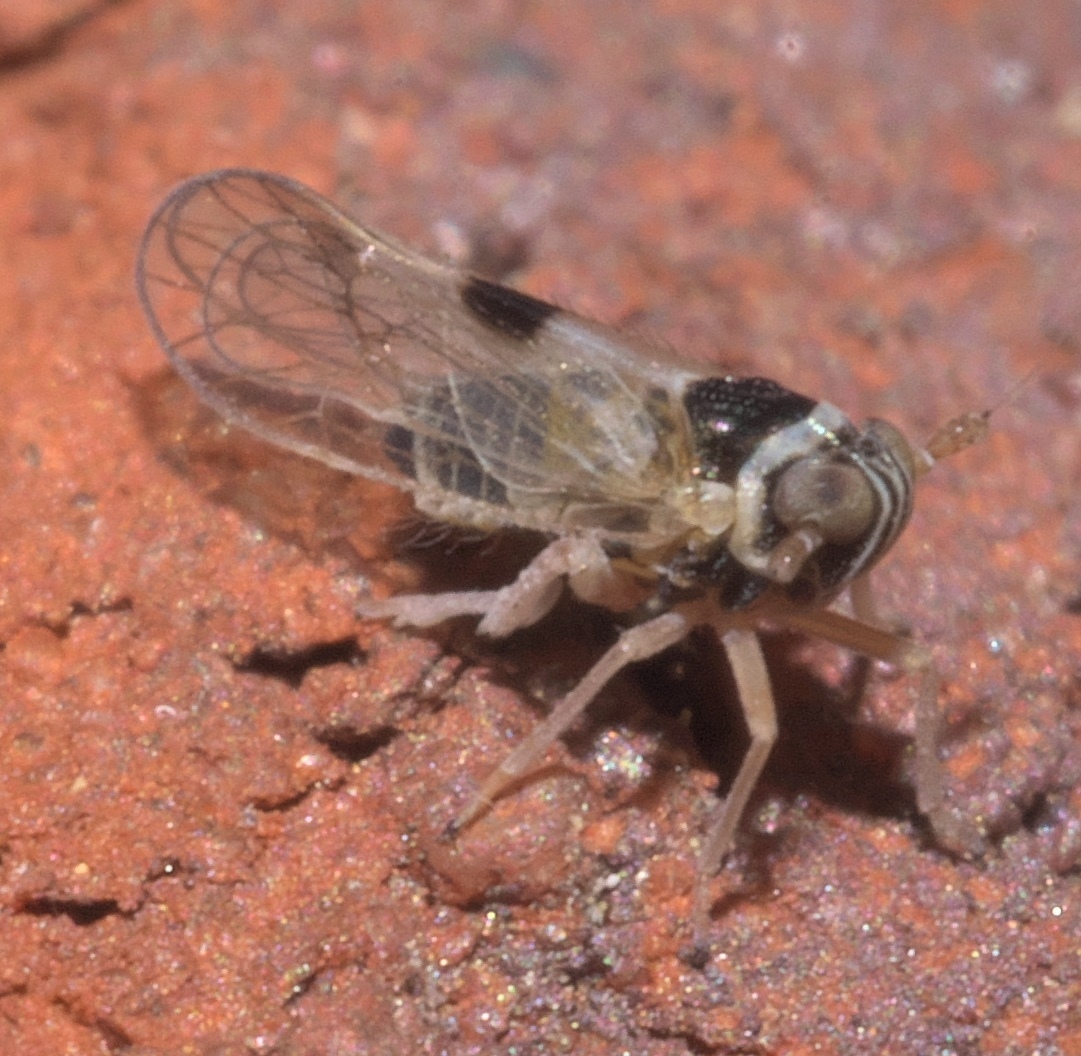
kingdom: Animalia
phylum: Arthropoda
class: Insecta
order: Hemiptera
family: Delphacidae
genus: Chionomus
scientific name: Chionomus
